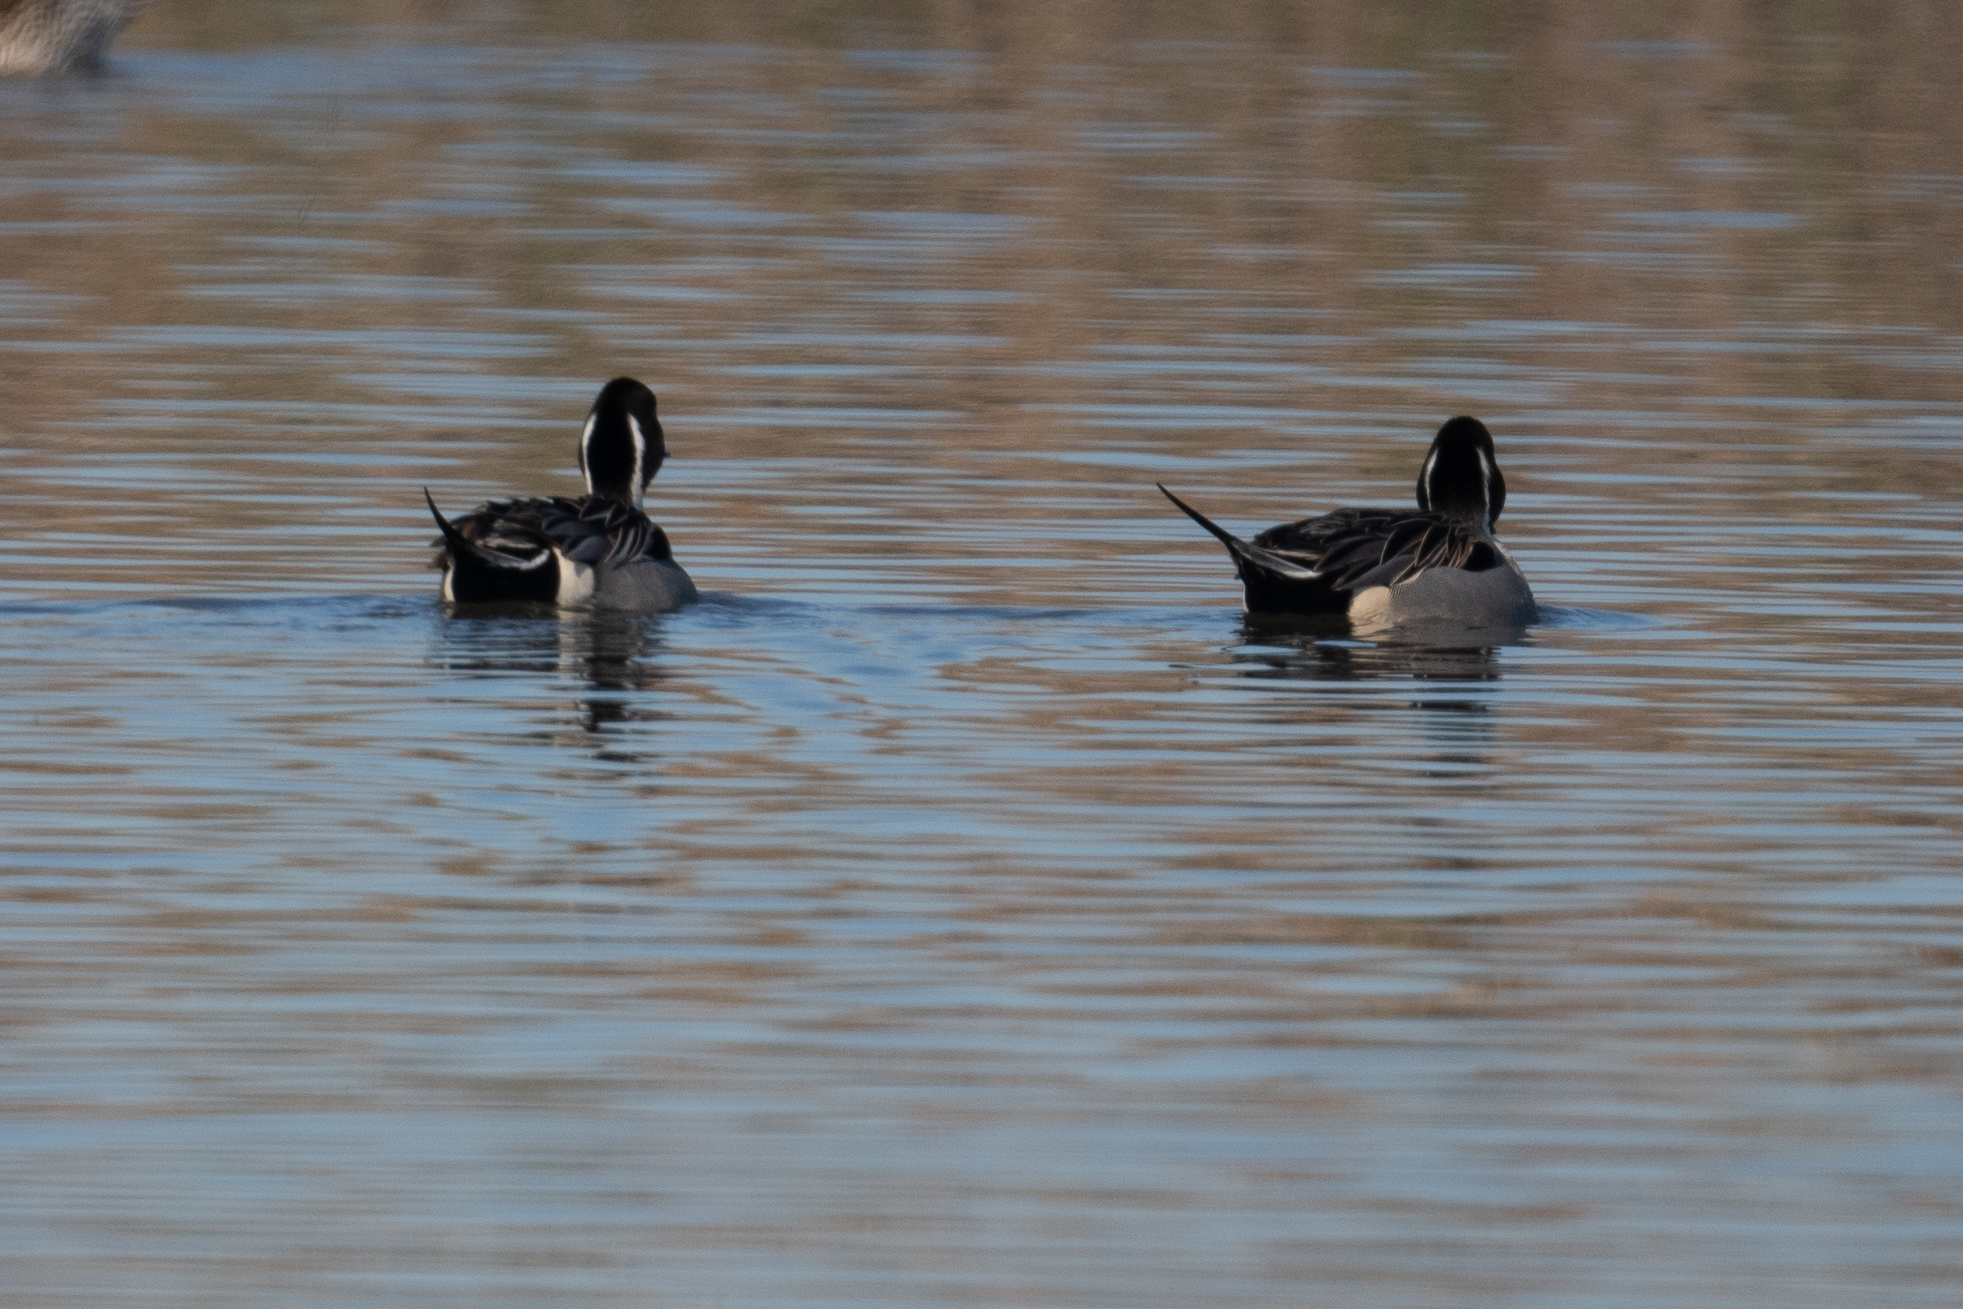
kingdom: Animalia
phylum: Chordata
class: Aves
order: Anseriformes
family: Anatidae
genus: Anas
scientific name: Anas acuta
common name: Northern pintail
